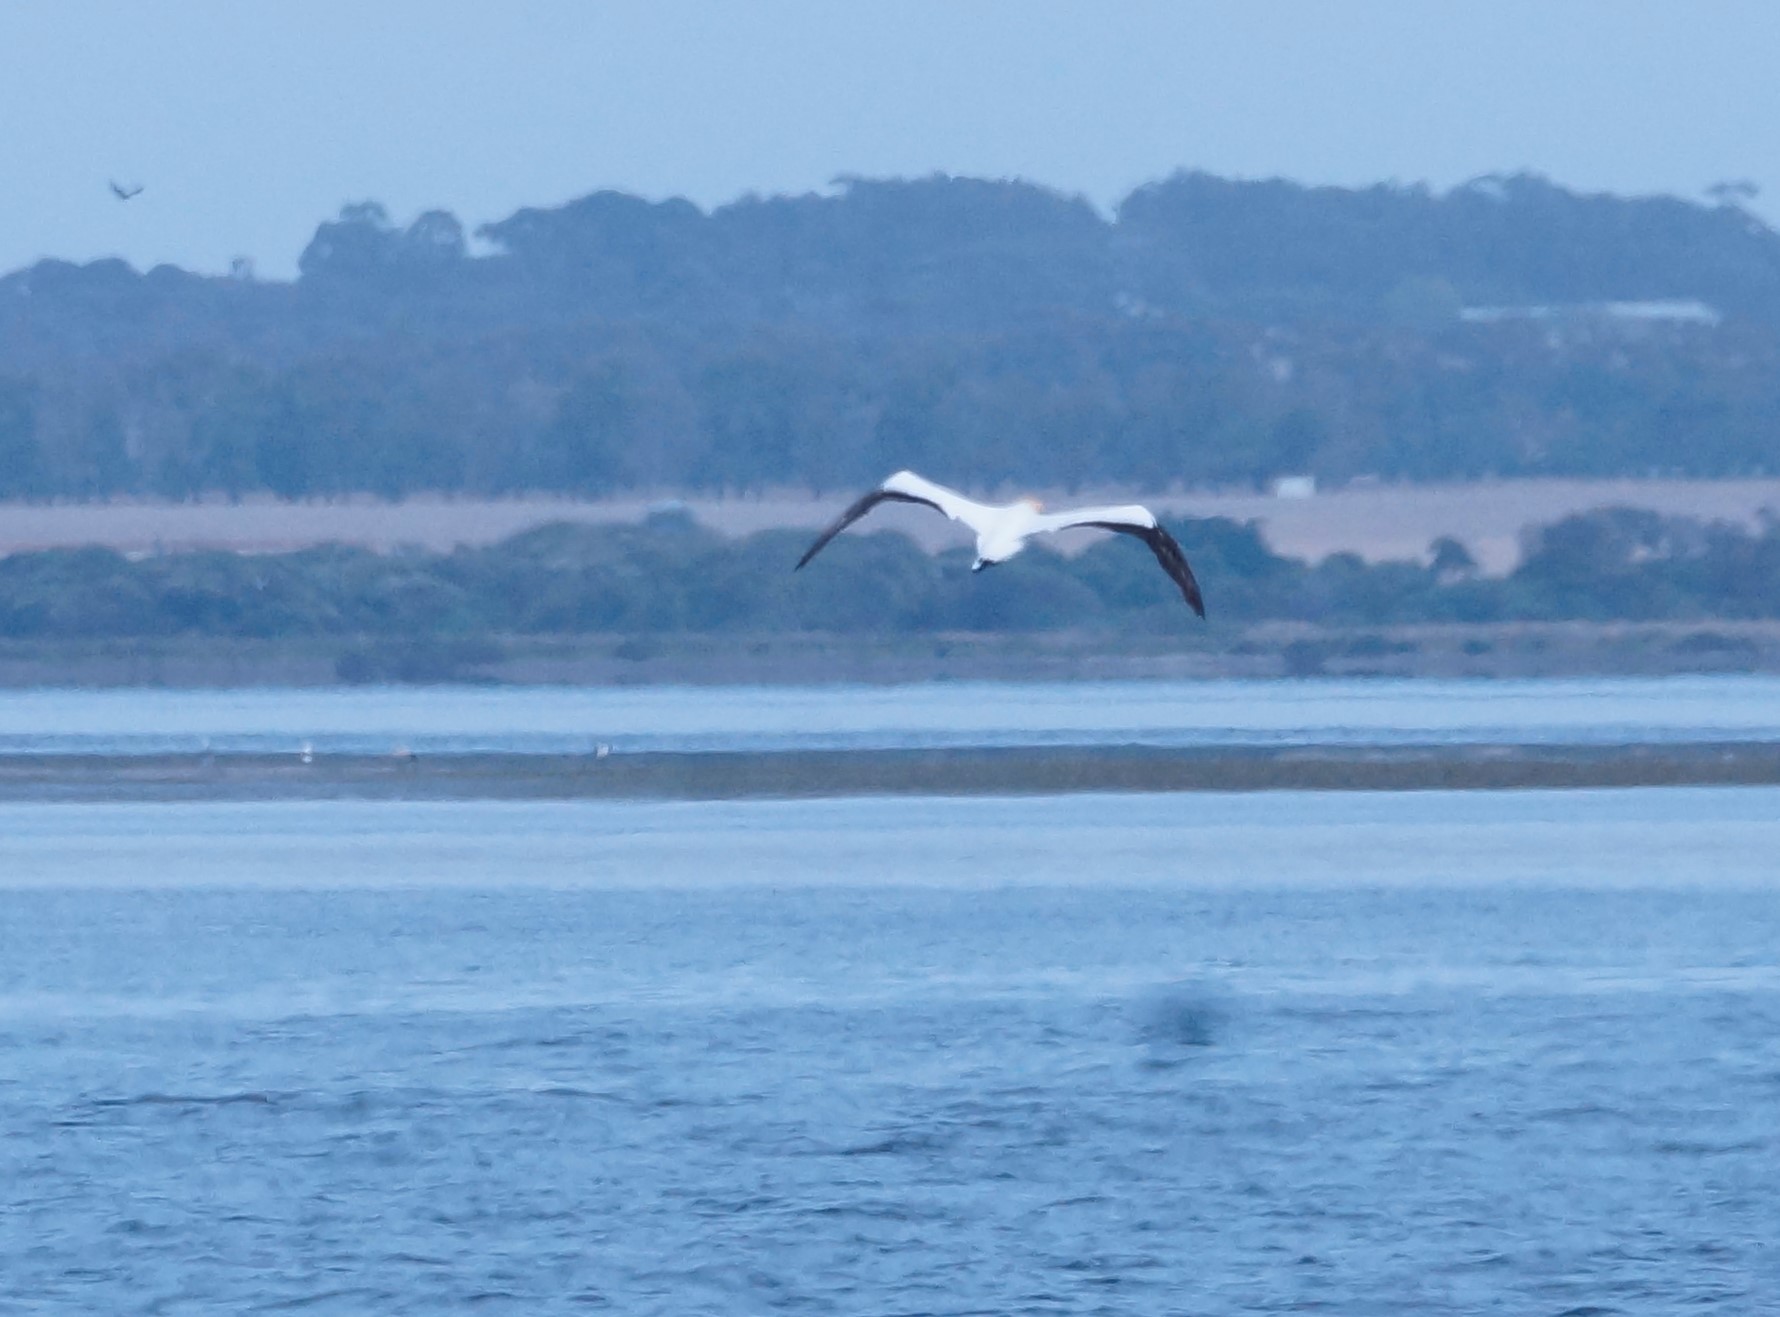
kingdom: Animalia
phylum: Chordata
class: Aves
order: Suliformes
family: Sulidae
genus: Morus
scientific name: Morus serrator
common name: Australasian gannet
